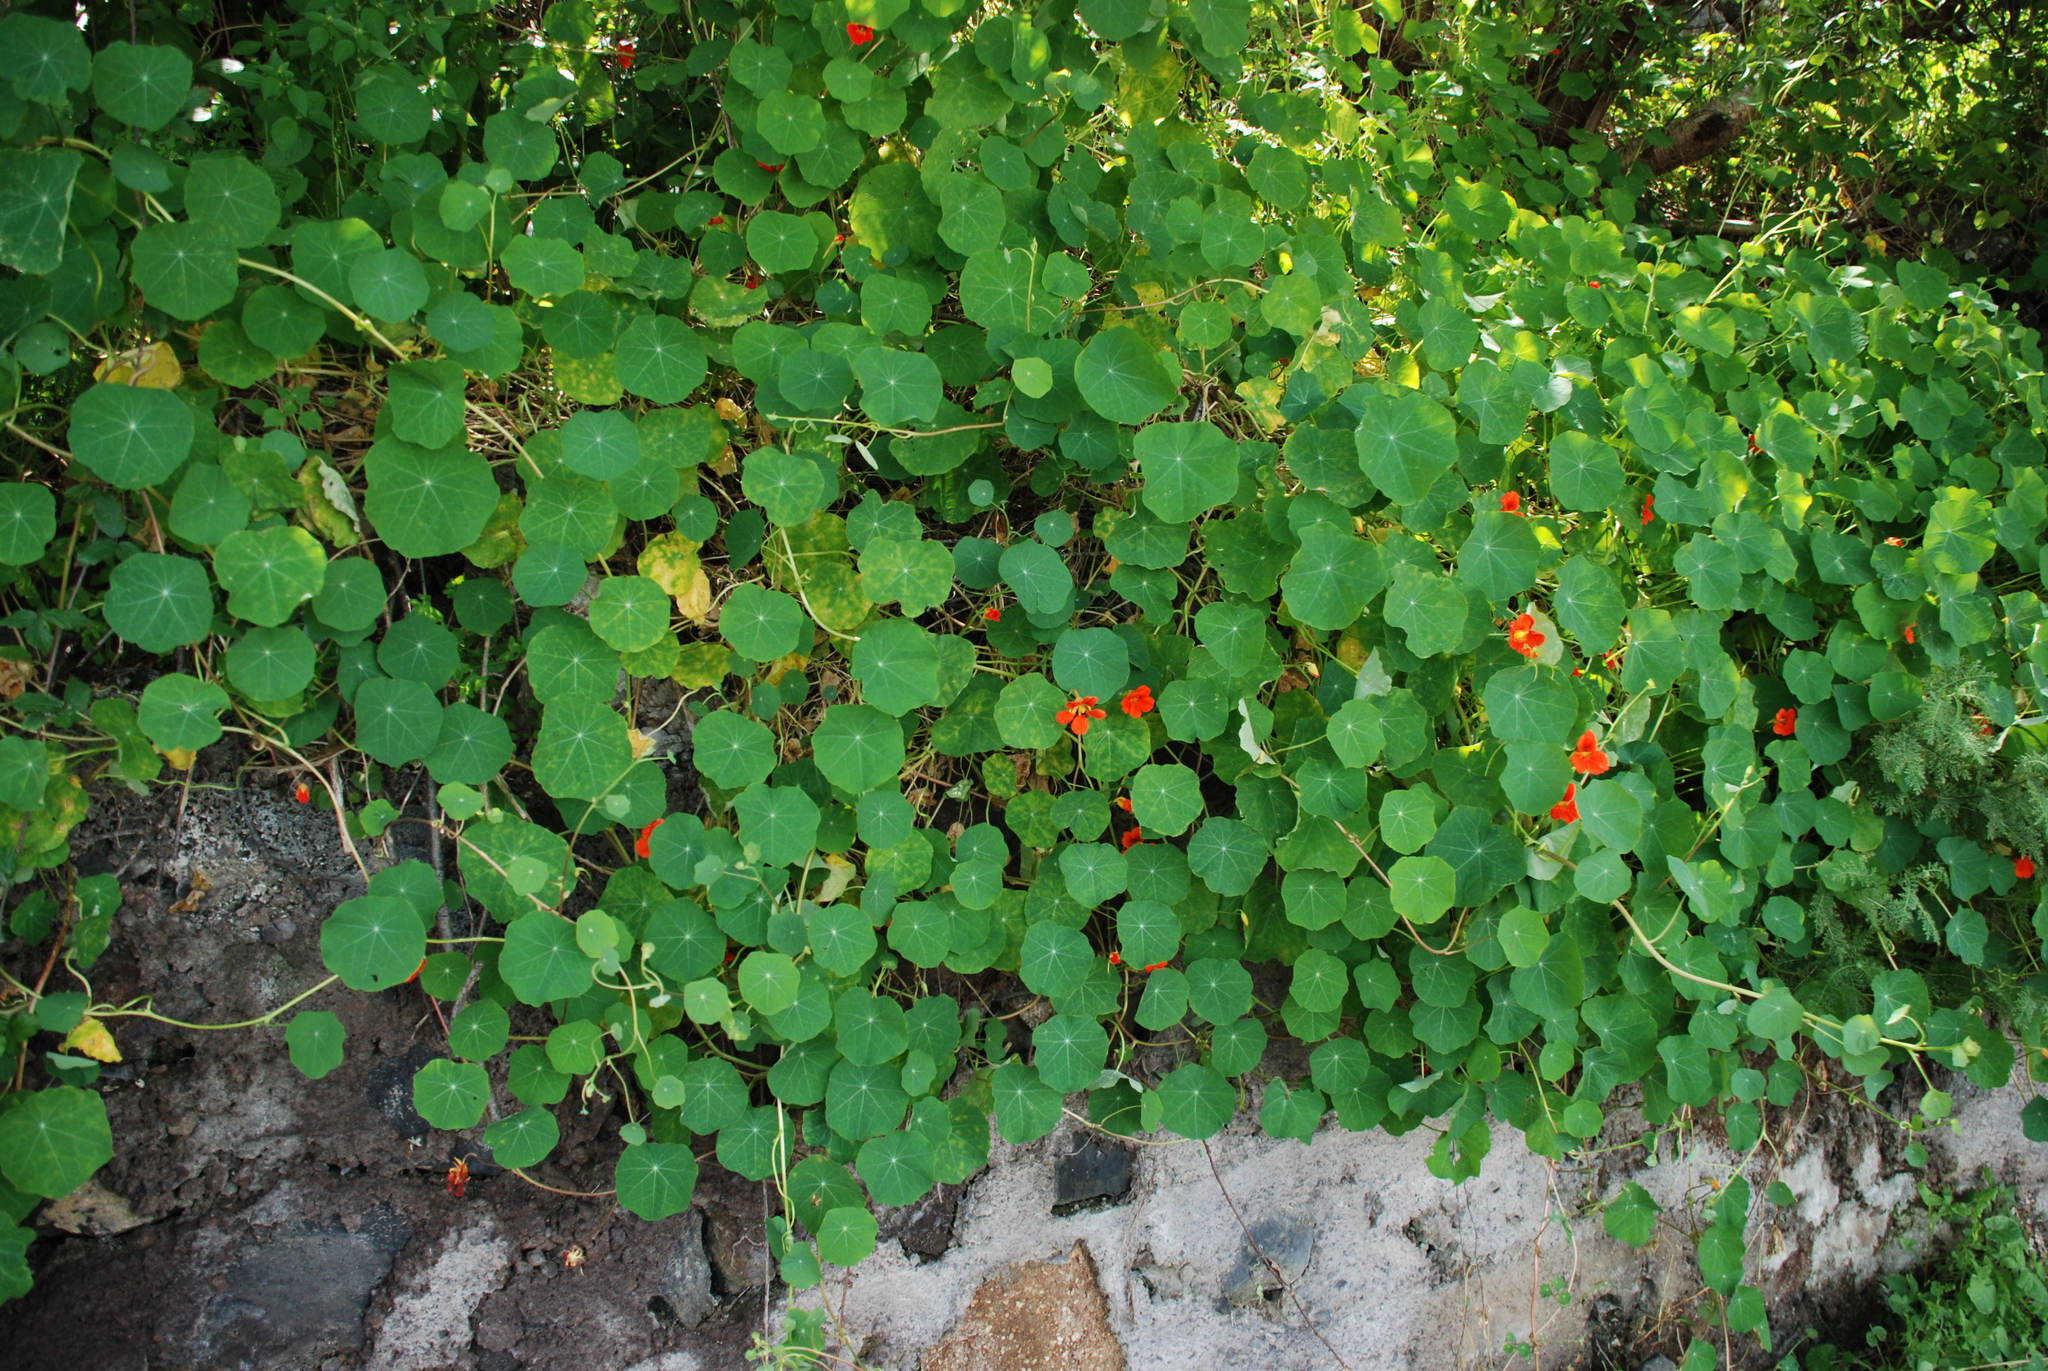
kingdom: Plantae
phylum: Tracheophyta
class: Magnoliopsida
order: Brassicales
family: Tropaeolaceae
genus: Tropaeolum
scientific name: Tropaeolum majus
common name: Nasturtium
